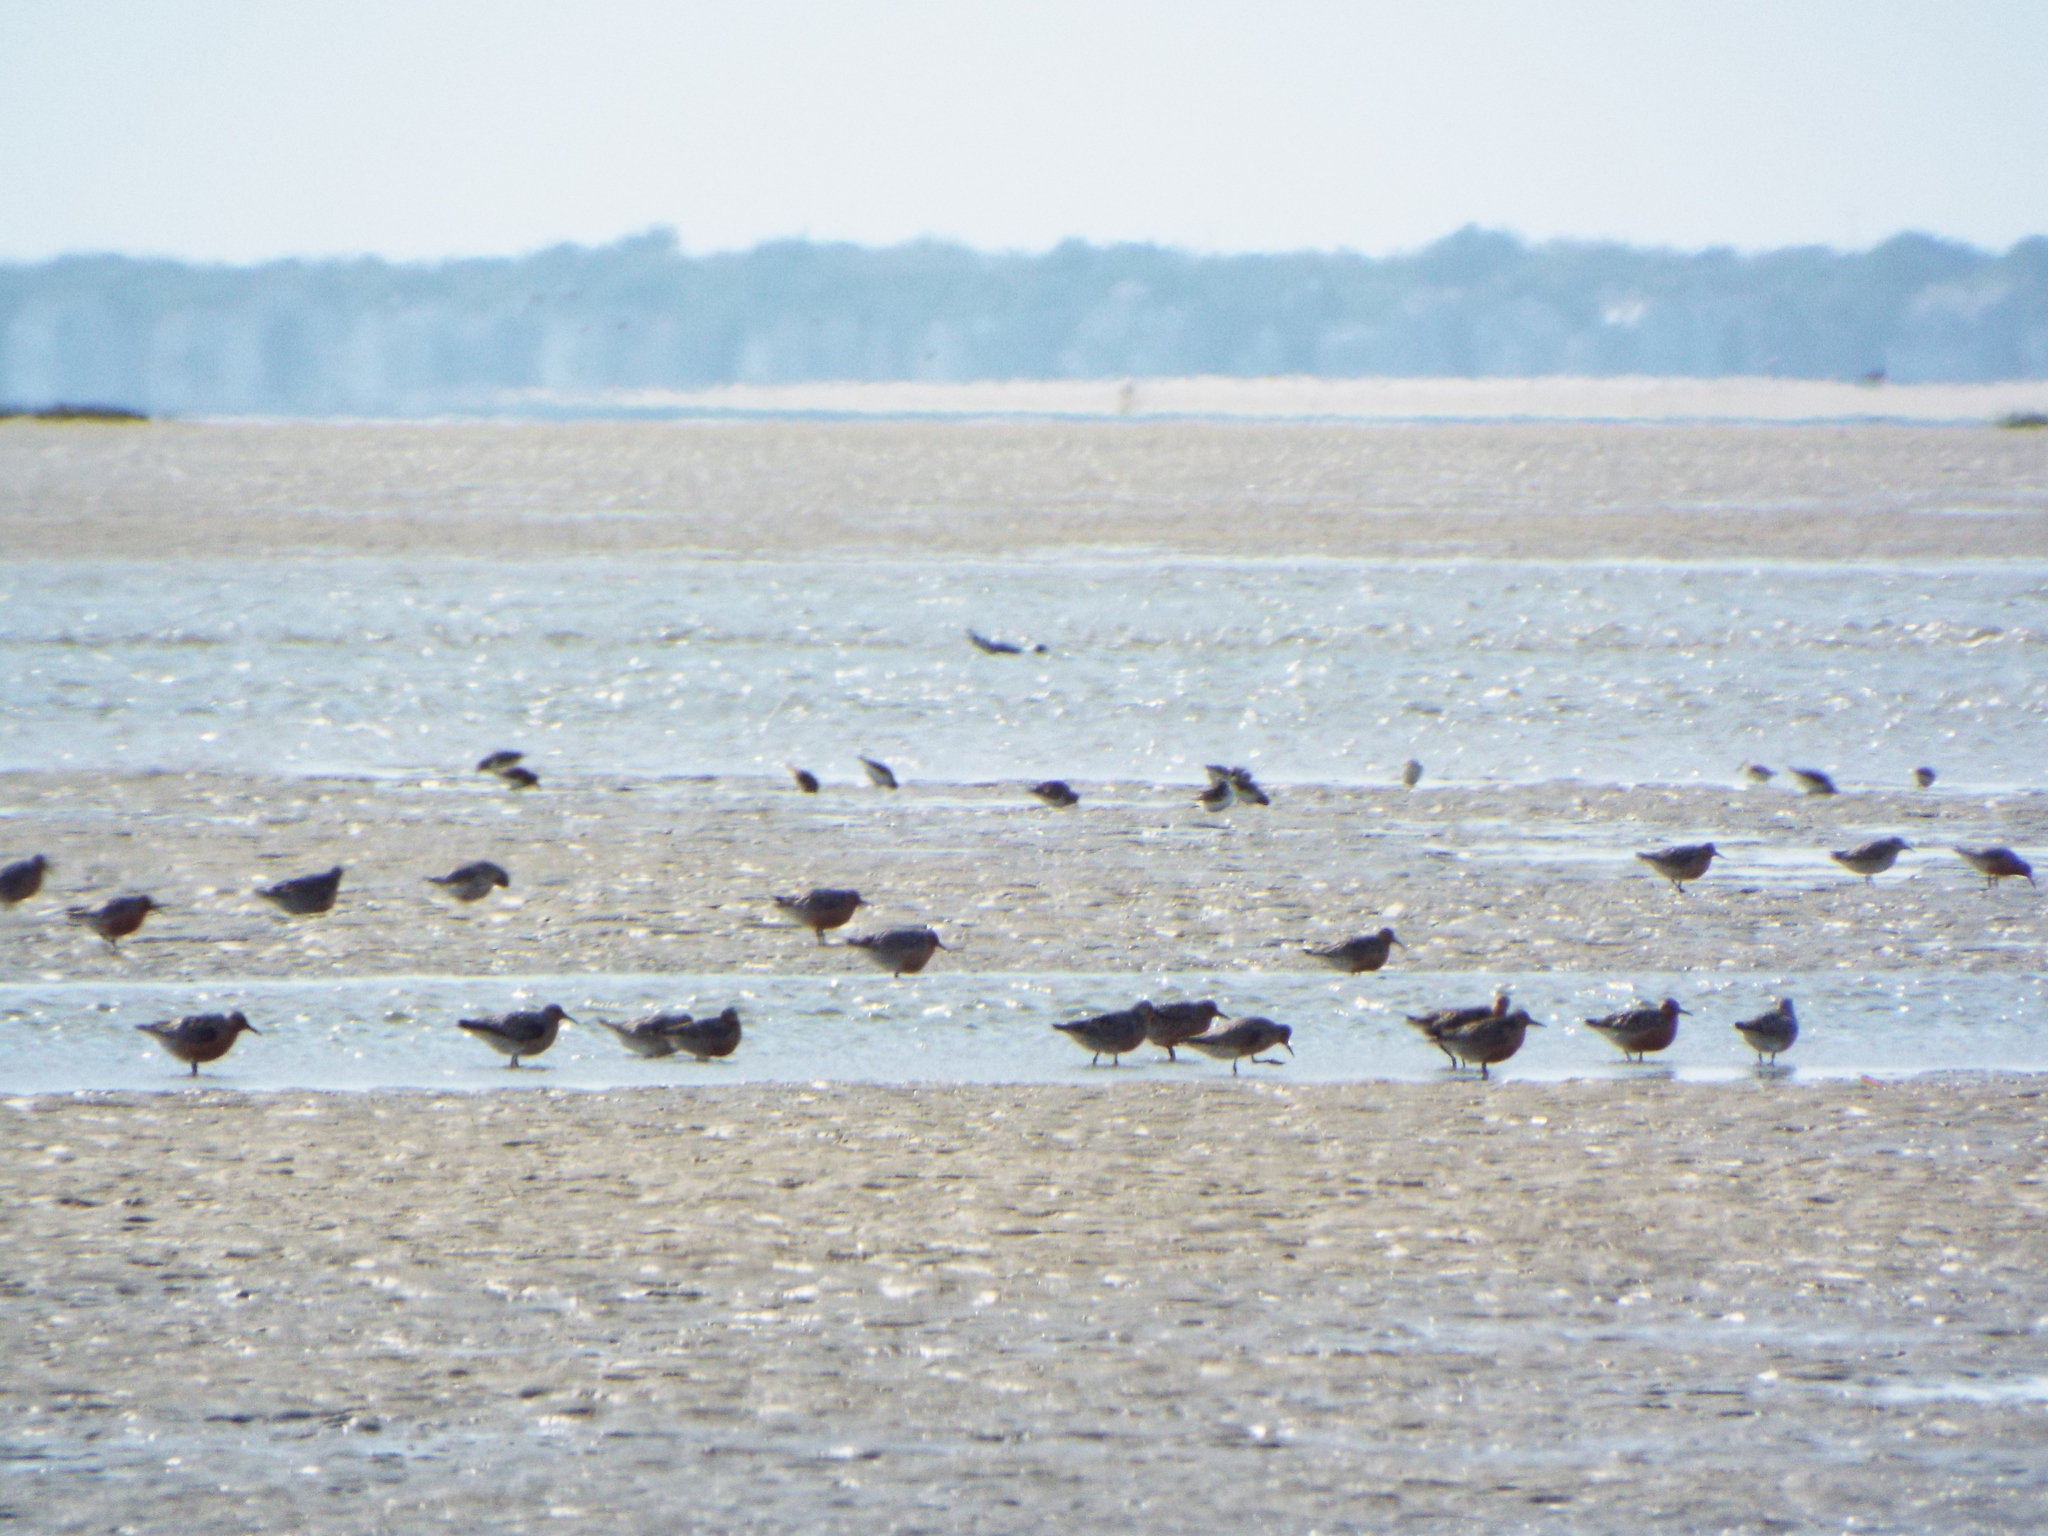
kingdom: Animalia
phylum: Chordata
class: Aves
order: Charadriiformes
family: Scolopacidae
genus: Calidris
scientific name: Calidris canutus
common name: Red knot
